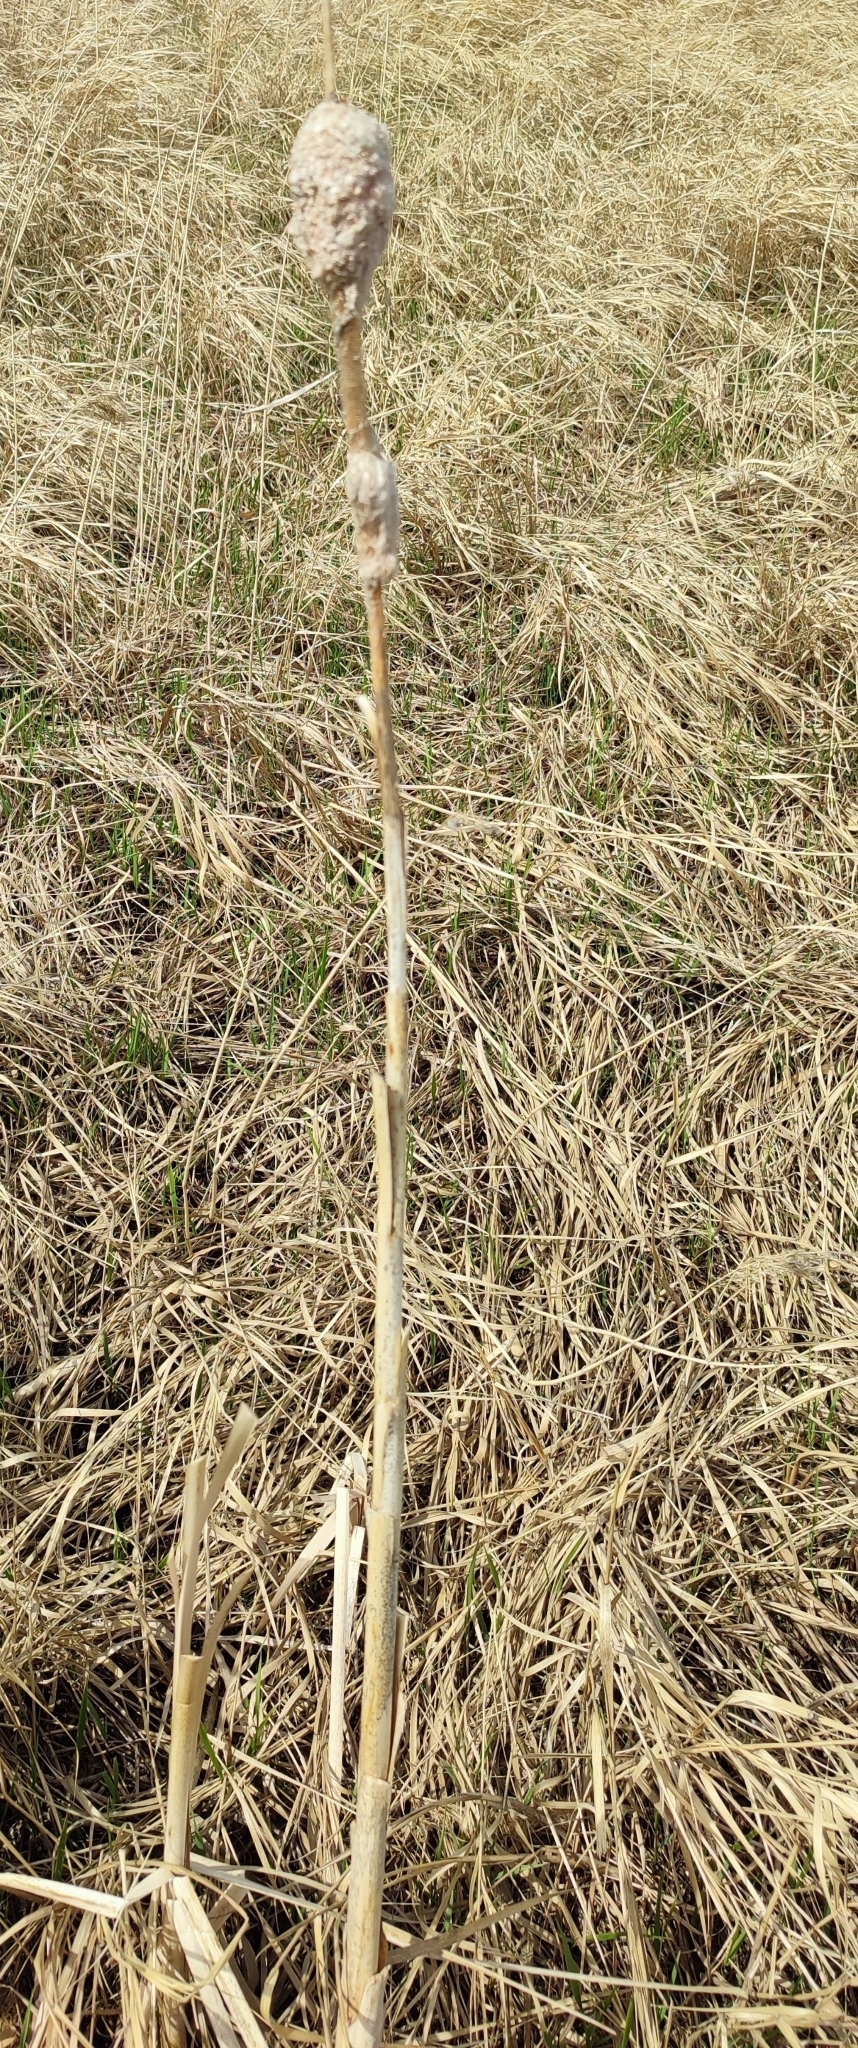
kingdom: Plantae
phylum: Tracheophyta
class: Liliopsida
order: Poales
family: Typhaceae
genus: Typha
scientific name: Typha incana
